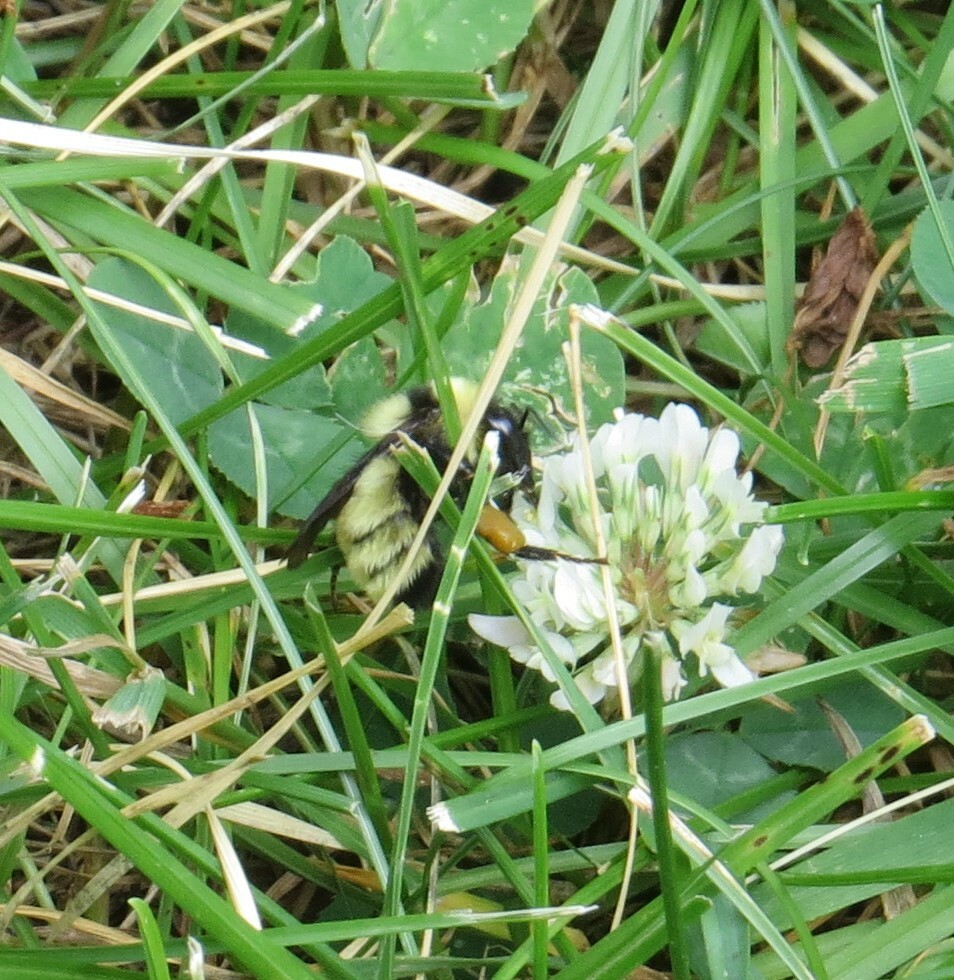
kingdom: Animalia
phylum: Arthropoda
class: Insecta
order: Hymenoptera
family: Apidae
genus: Bombus
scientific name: Bombus fervidus
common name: Yellow bumble bee
